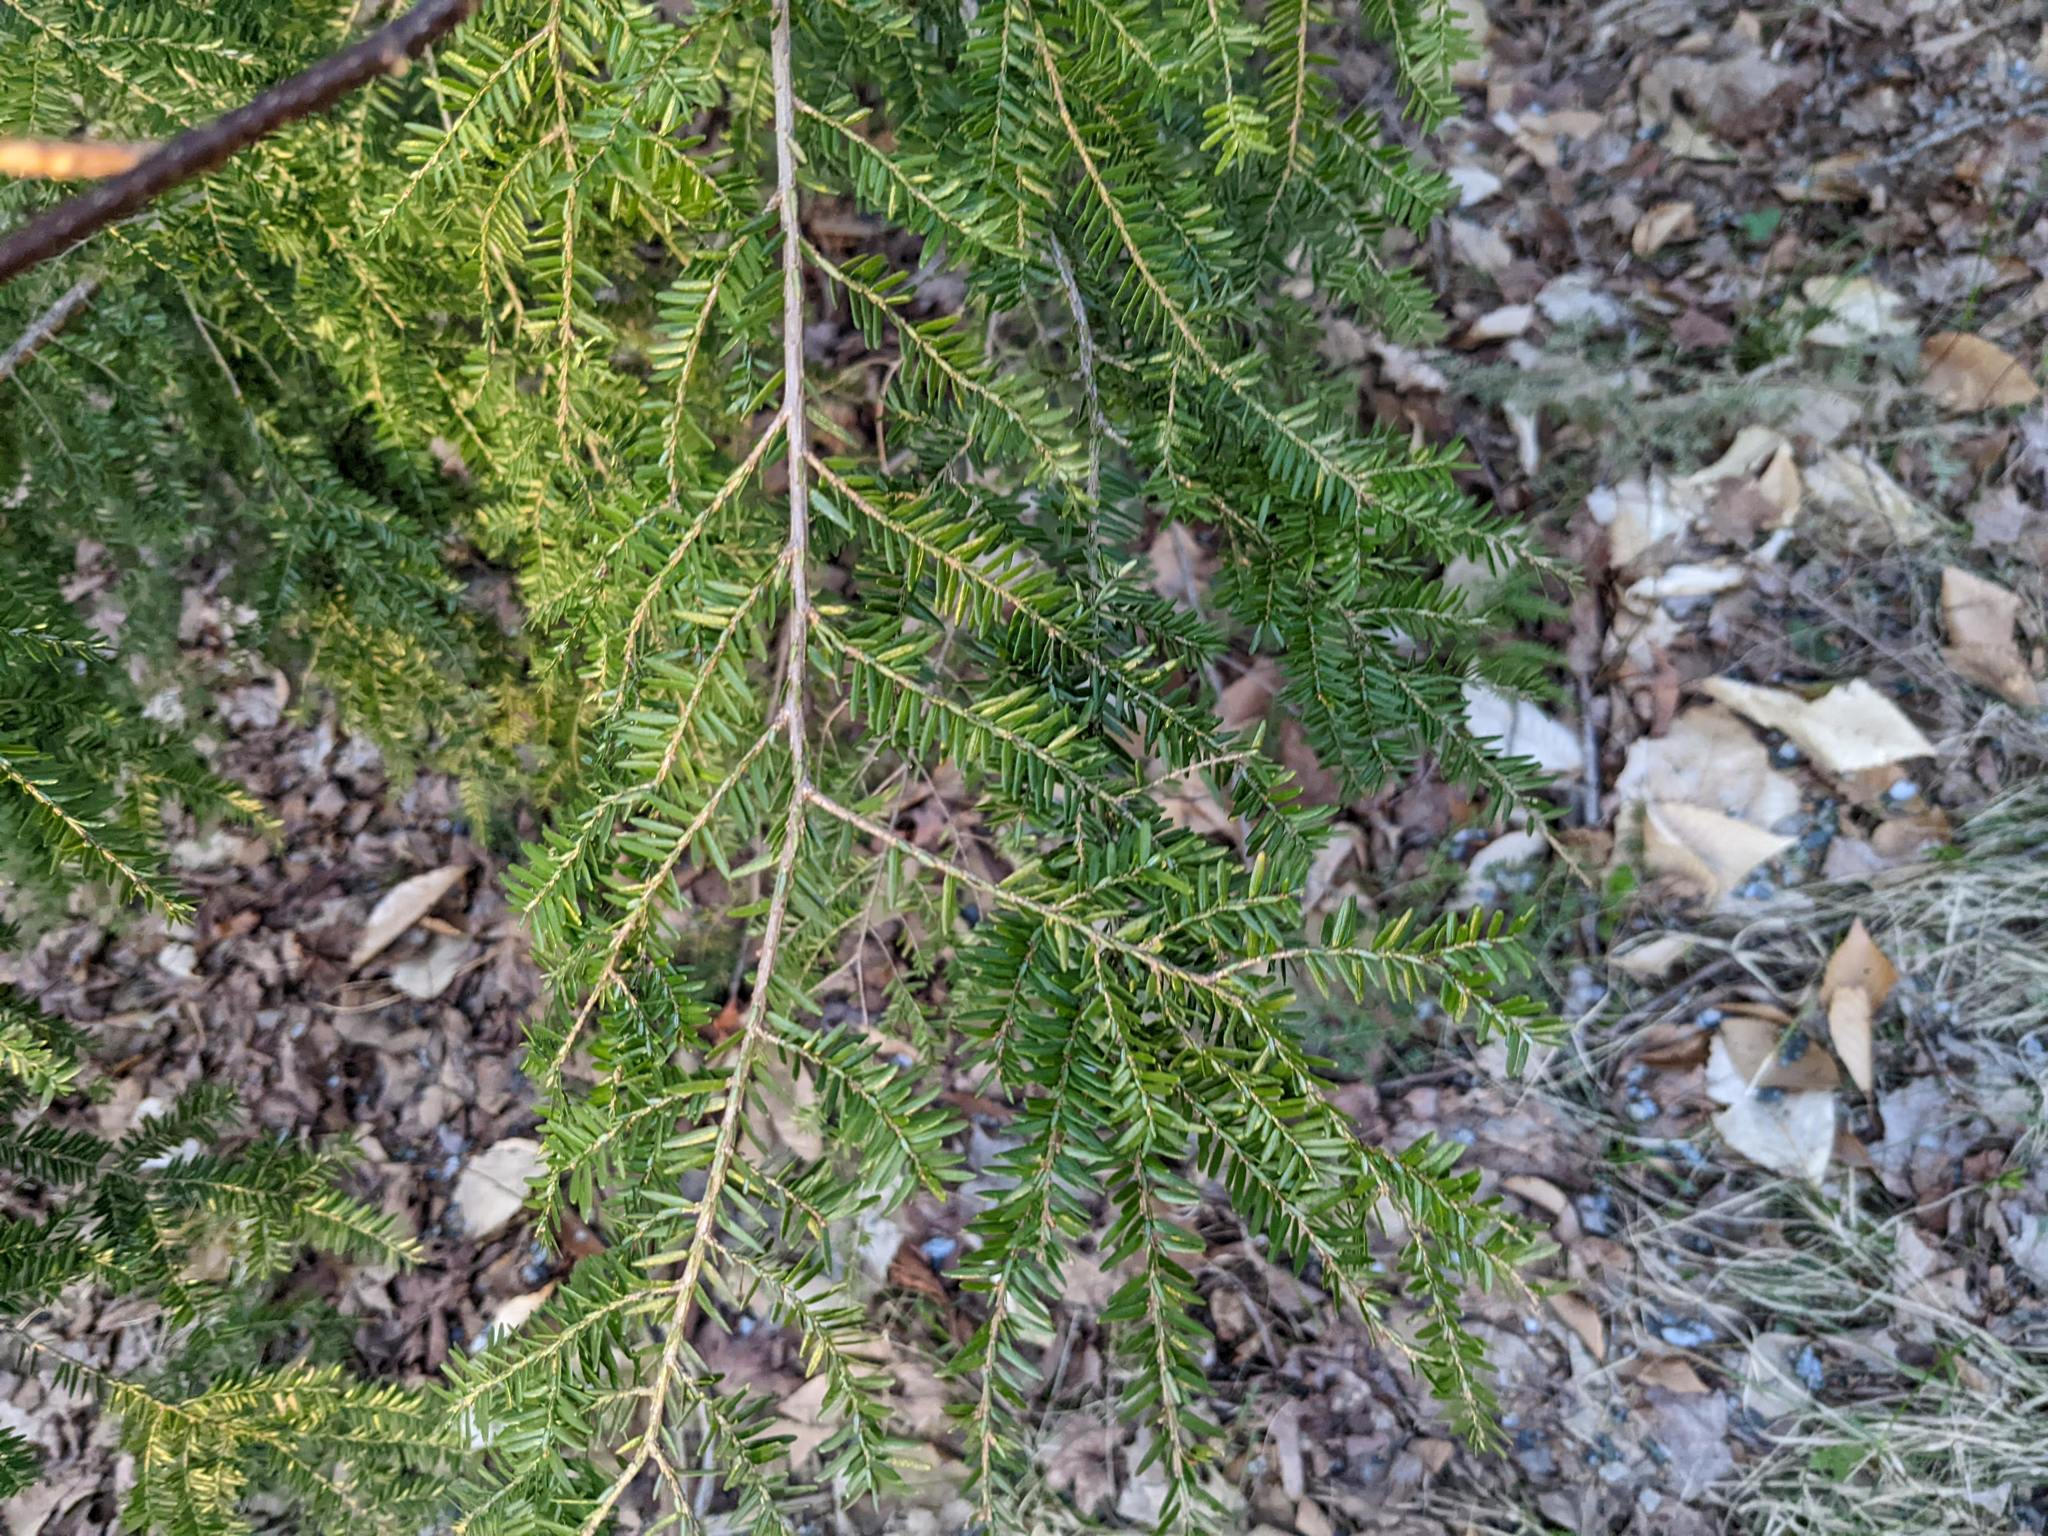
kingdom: Plantae
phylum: Tracheophyta
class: Pinopsida
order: Pinales
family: Pinaceae
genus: Tsuga
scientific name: Tsuga canadensis
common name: Eastern hemlock
